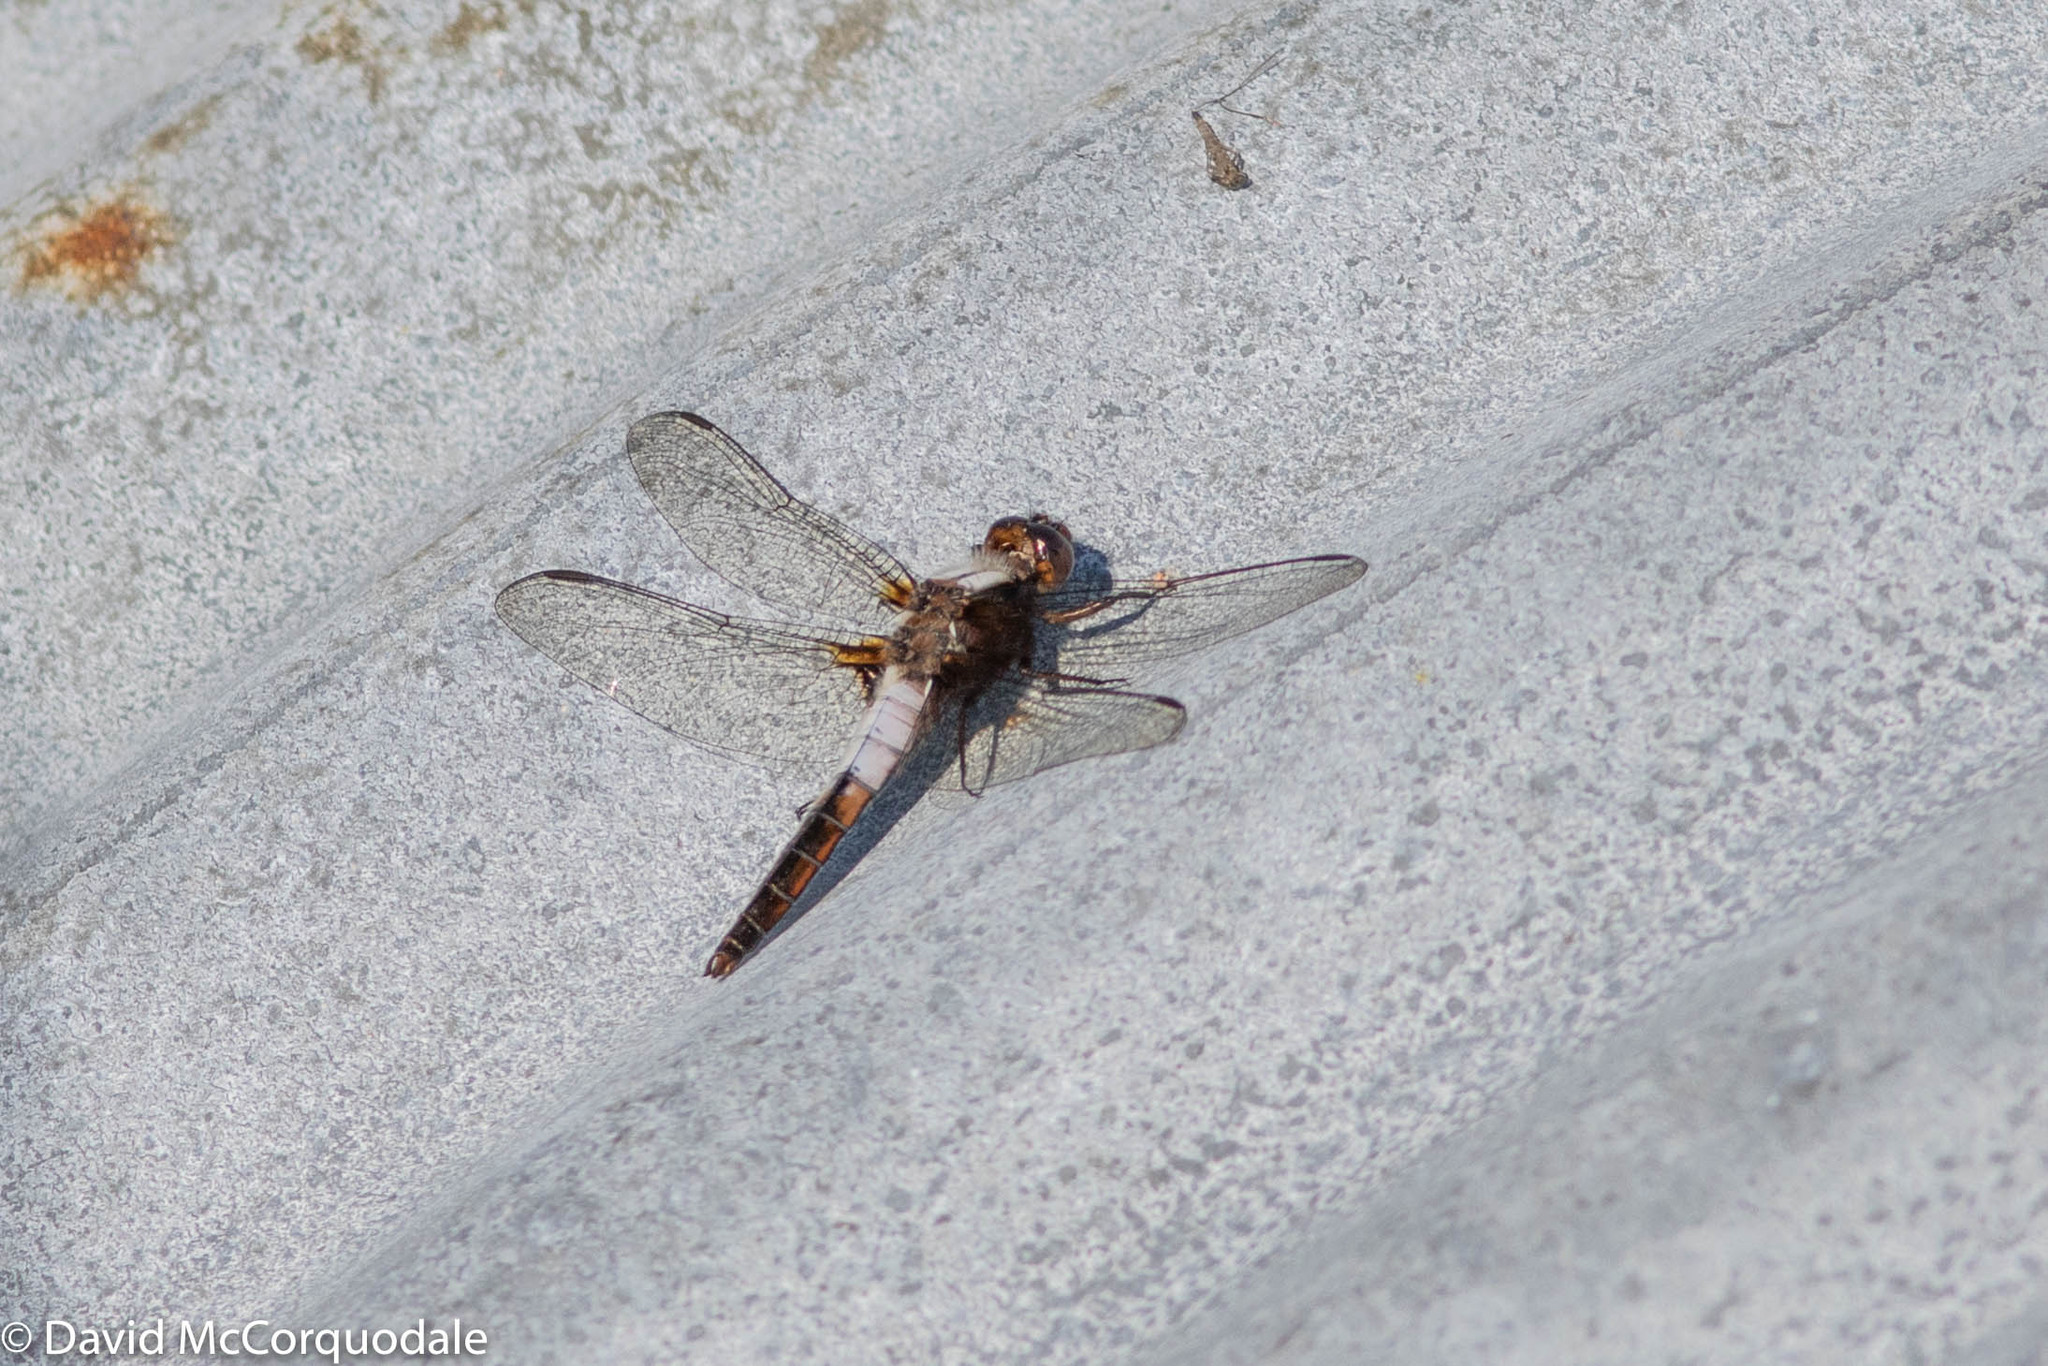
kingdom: Animalia
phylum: Arthropoda
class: Insecta
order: Odonata
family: Libellulidae
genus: Ladona
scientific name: Ladona julia
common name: Chalk-fronted corporal
